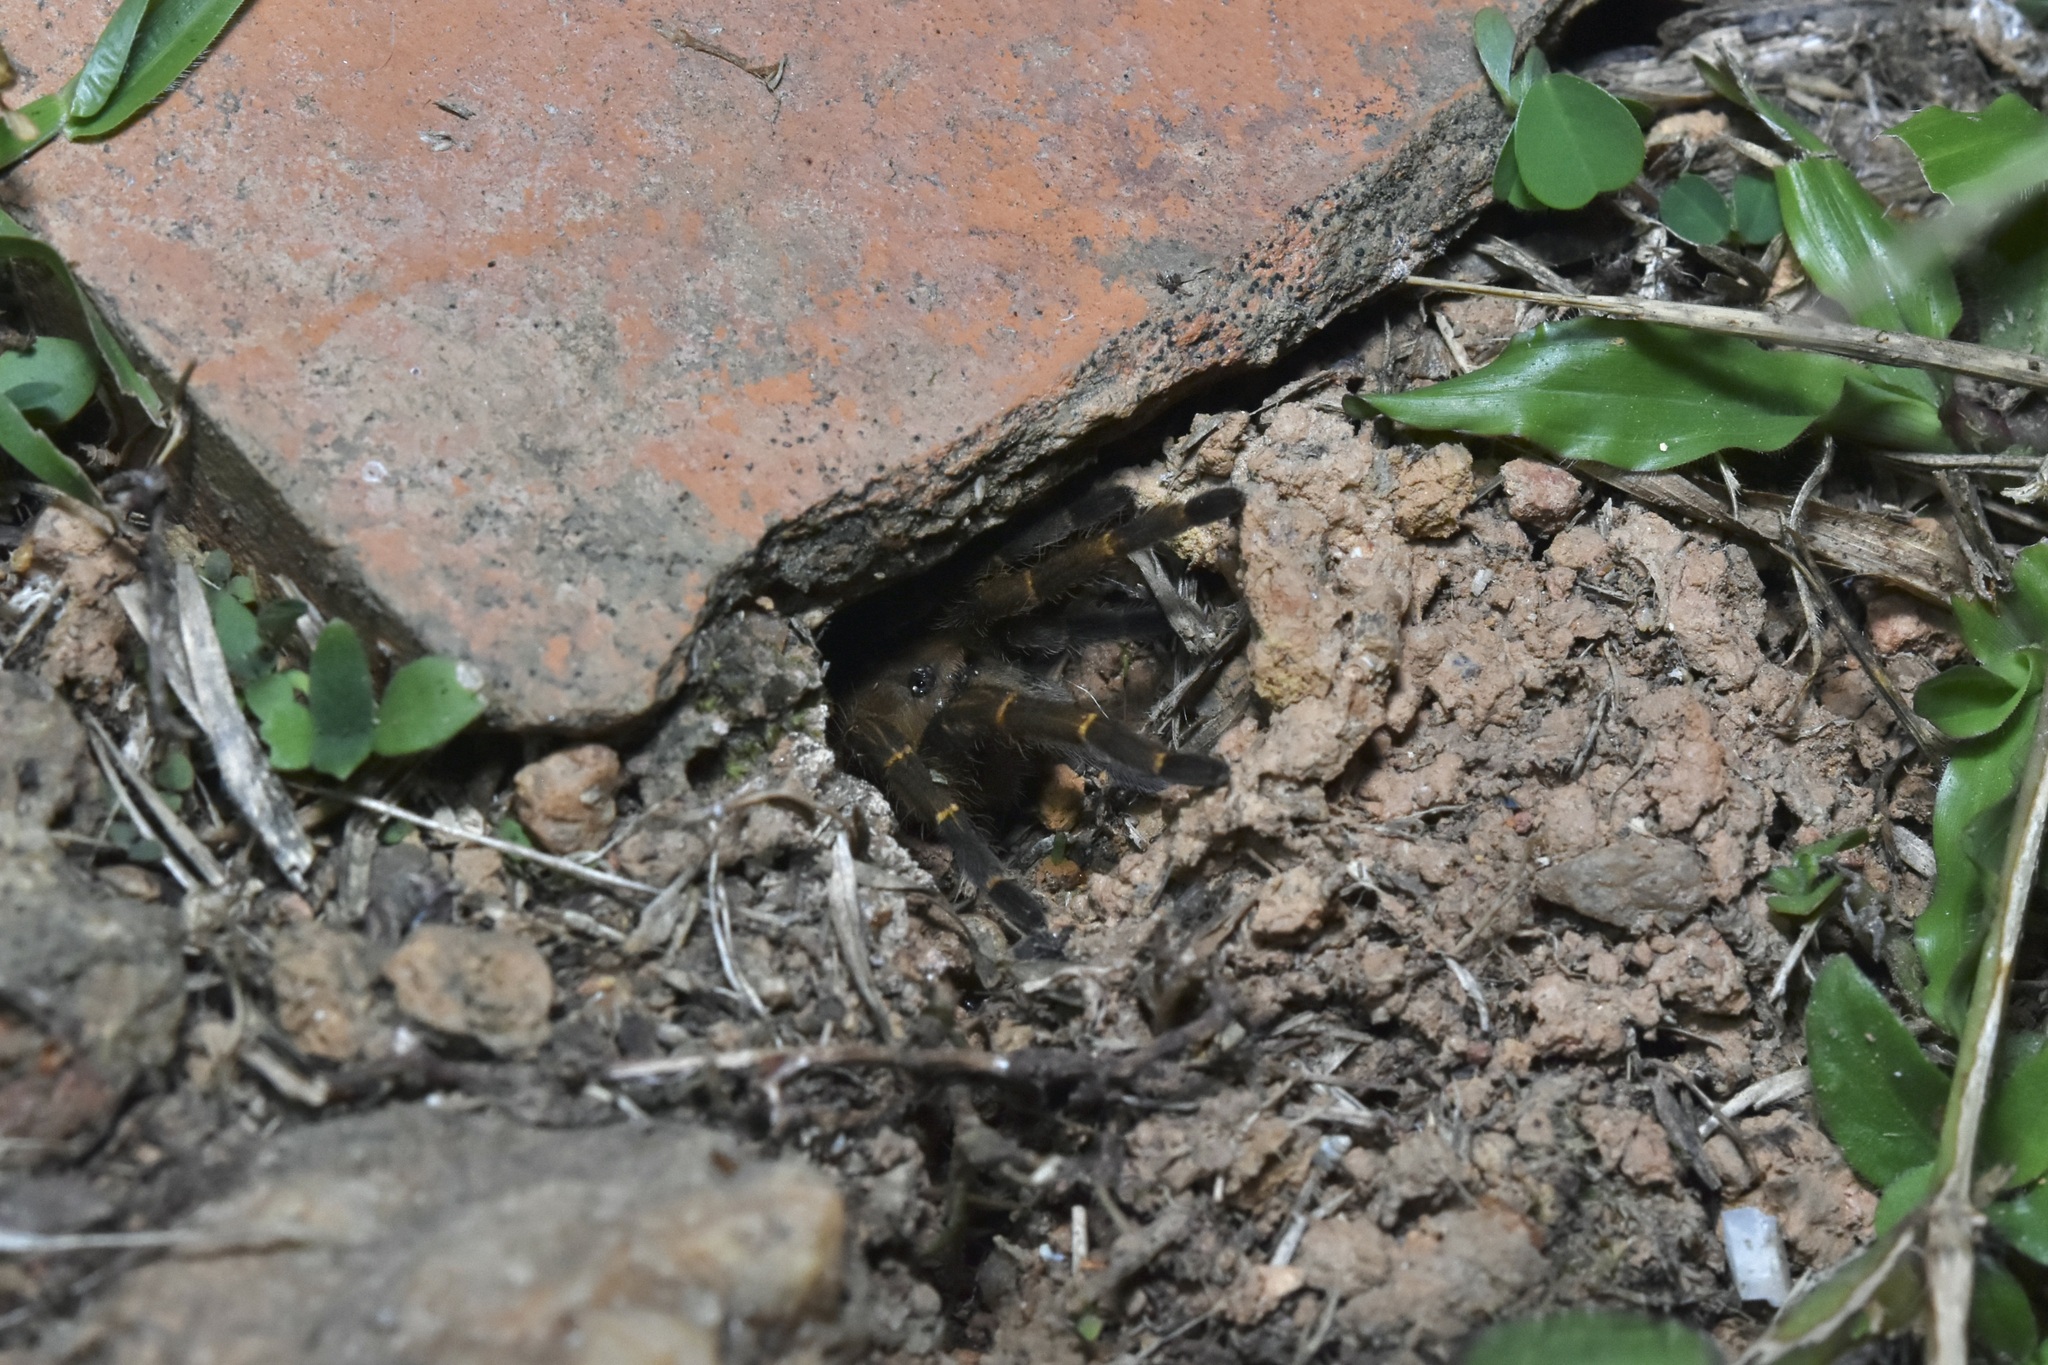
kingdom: Animalia
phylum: Arthropoda
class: Arachnida
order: Araneae
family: Theraphosidae
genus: Spinosatibiapalpus
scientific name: Spinosatibiapalpus trinitatis
